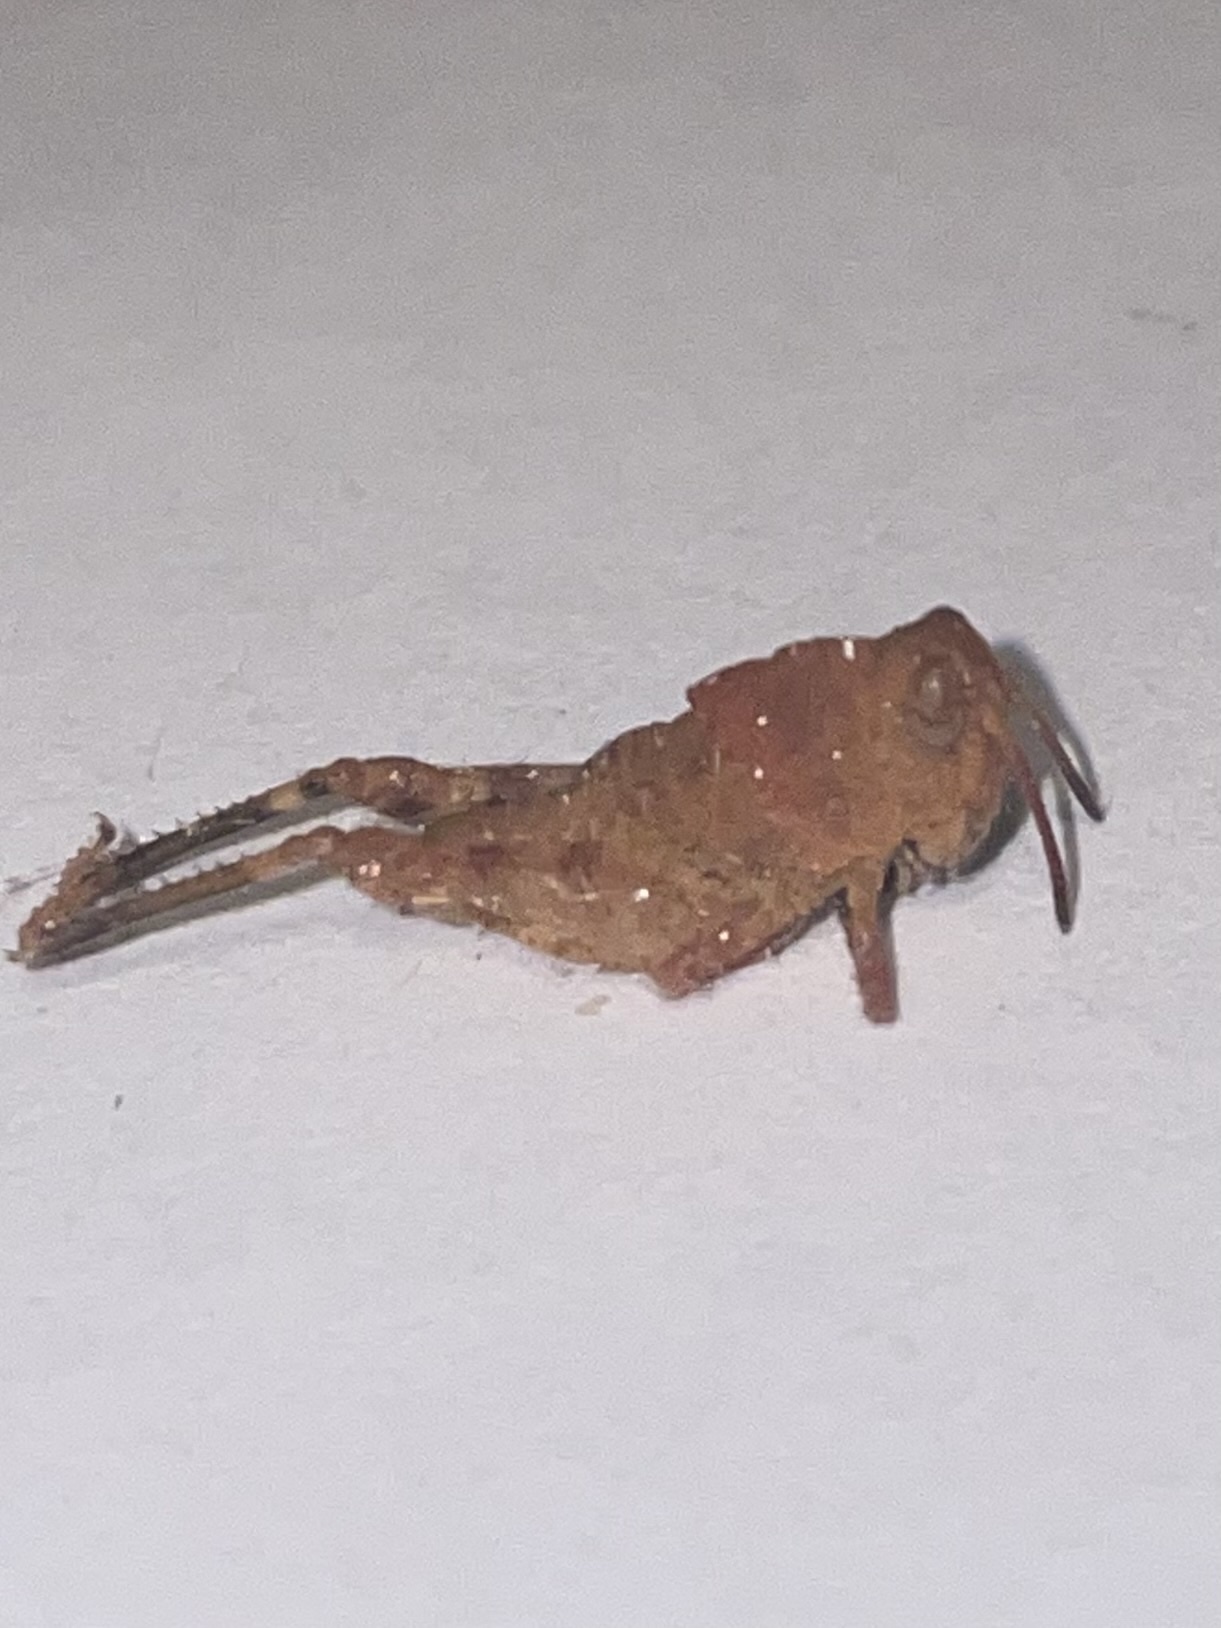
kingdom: Animalia
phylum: Arthropoda
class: Insecta
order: Orthoptera
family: Acrididae
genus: Dissosteira
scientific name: Dissosteira carolina
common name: Carolina grasshopper
